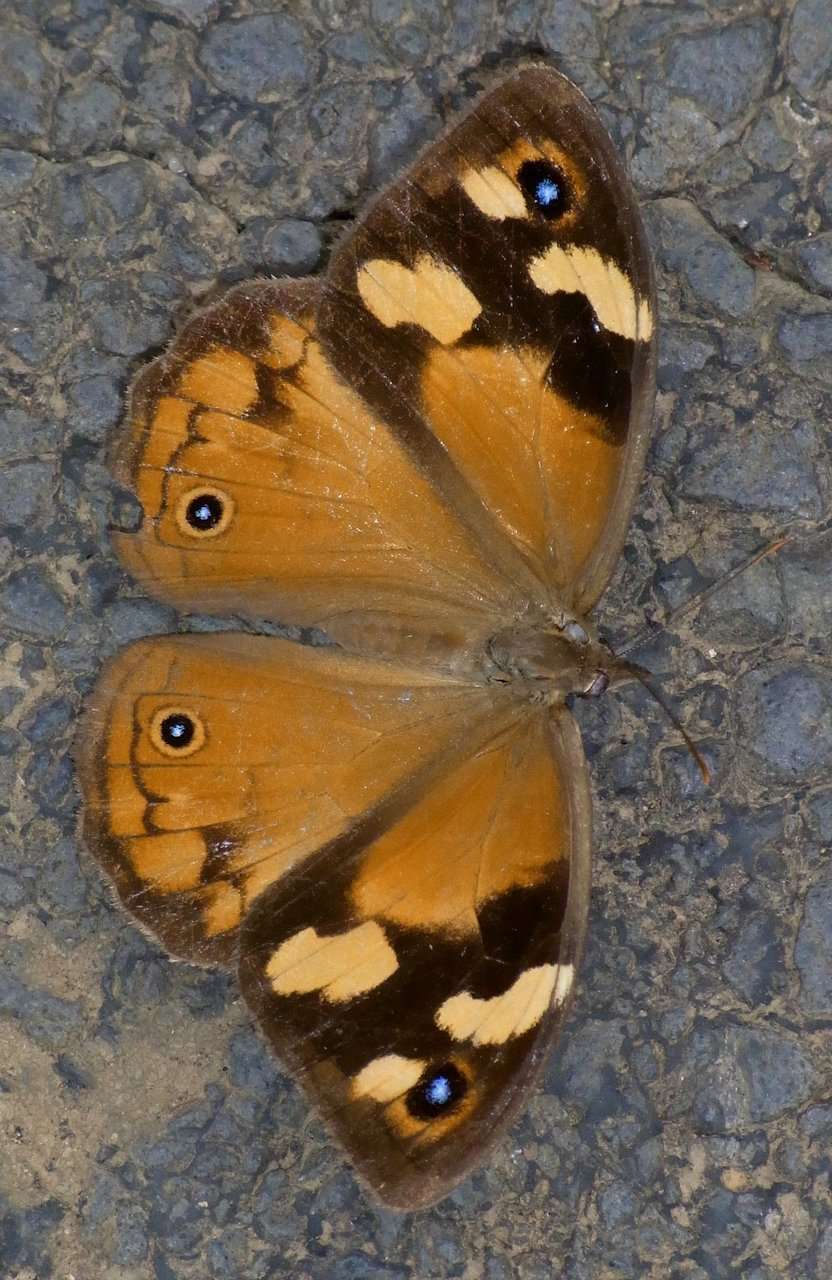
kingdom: Animalia
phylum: Arthropoda
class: Insecta
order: Lepidoptera
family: Nymphalidae
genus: Heteronympha
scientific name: Heteronympha merope
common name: Common brown
